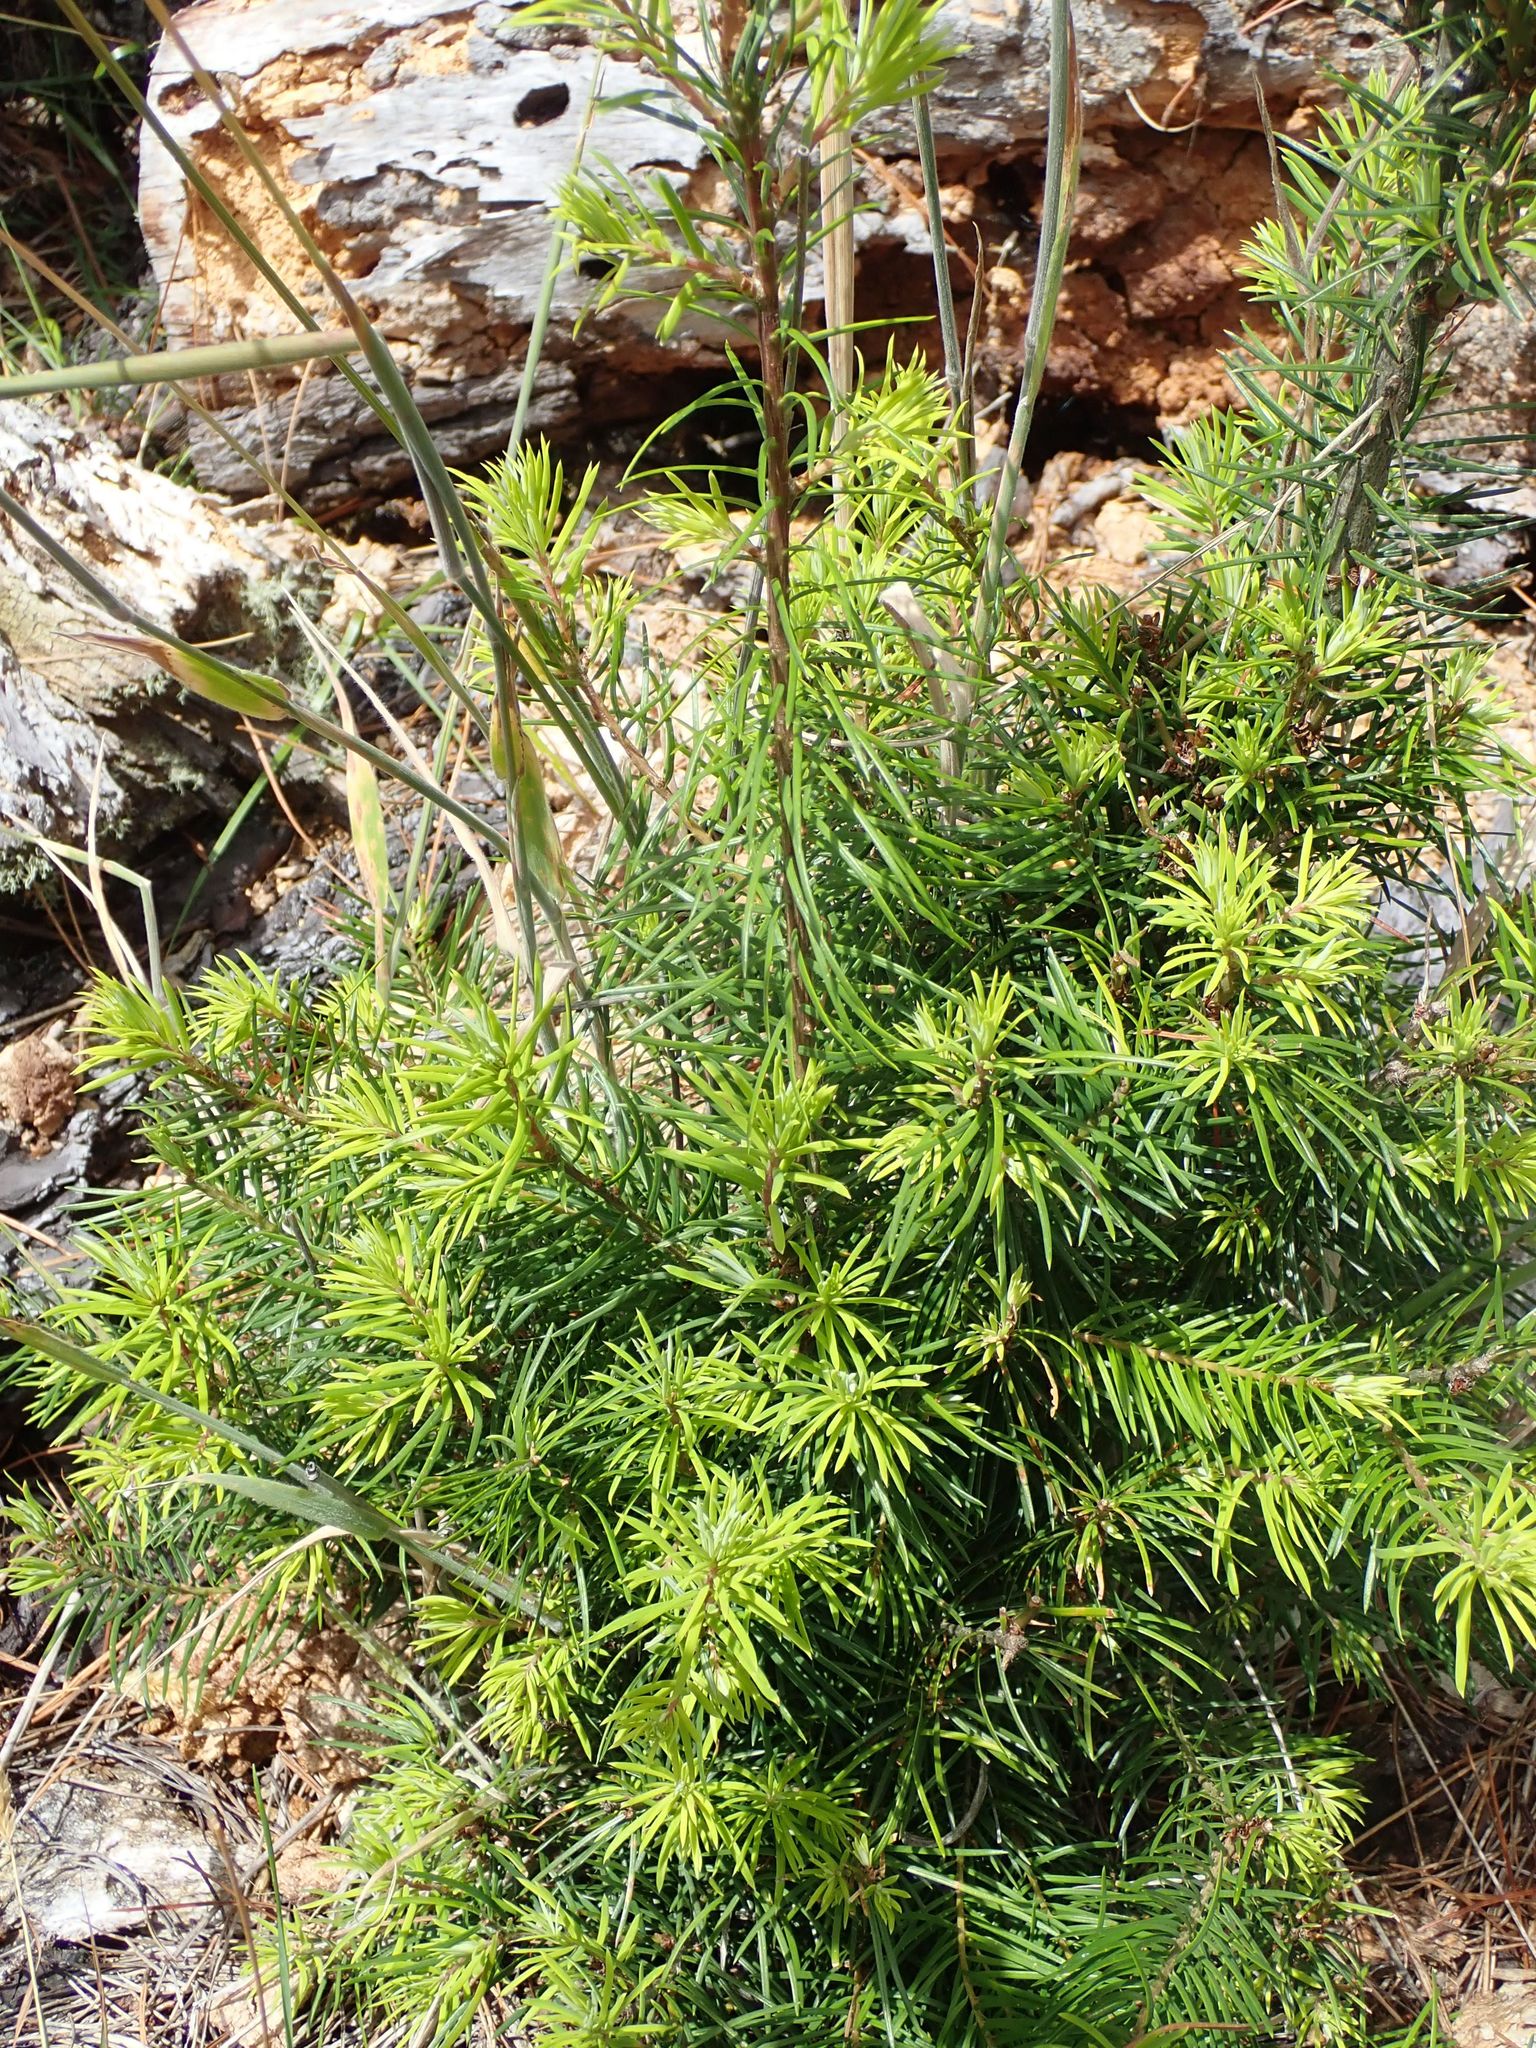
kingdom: Plantae
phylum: Tracheophyta
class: Pinopsida
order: Pinales
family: Pinaceae
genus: Pseudotsuga
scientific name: Pseudotsuga menziesii
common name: Douglas fir
